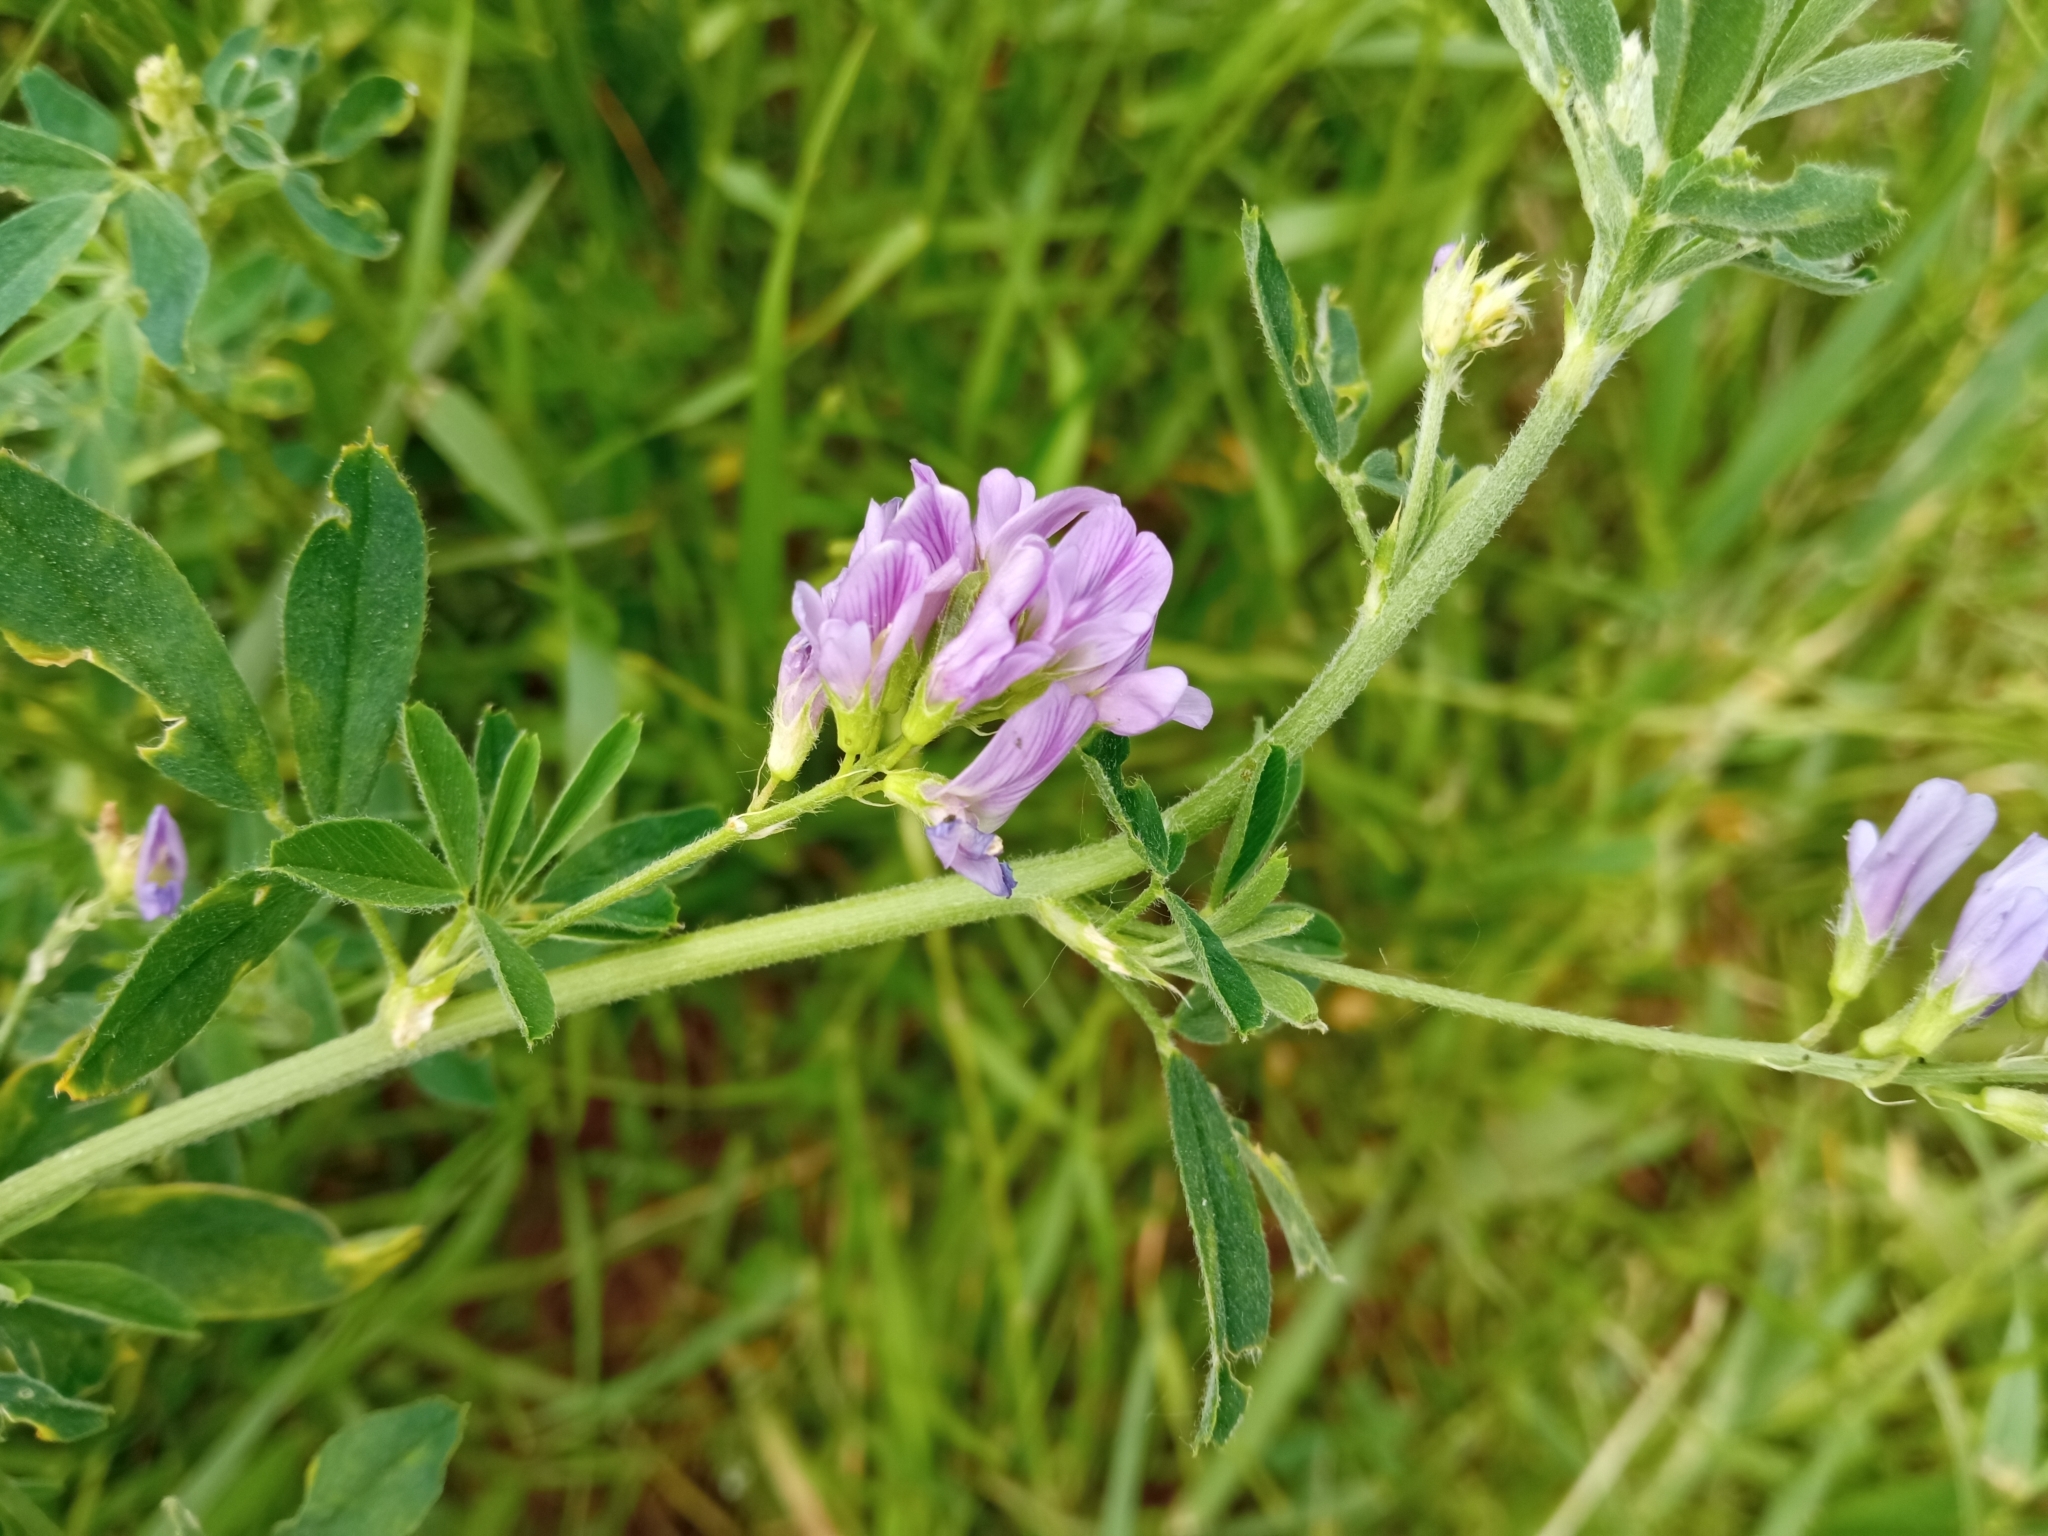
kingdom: Plantae
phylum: Tracheophyta
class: Magnoliopsida
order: Fabales
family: Fabaceae
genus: Medicago
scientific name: Medicago sativa
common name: Alfalfa
